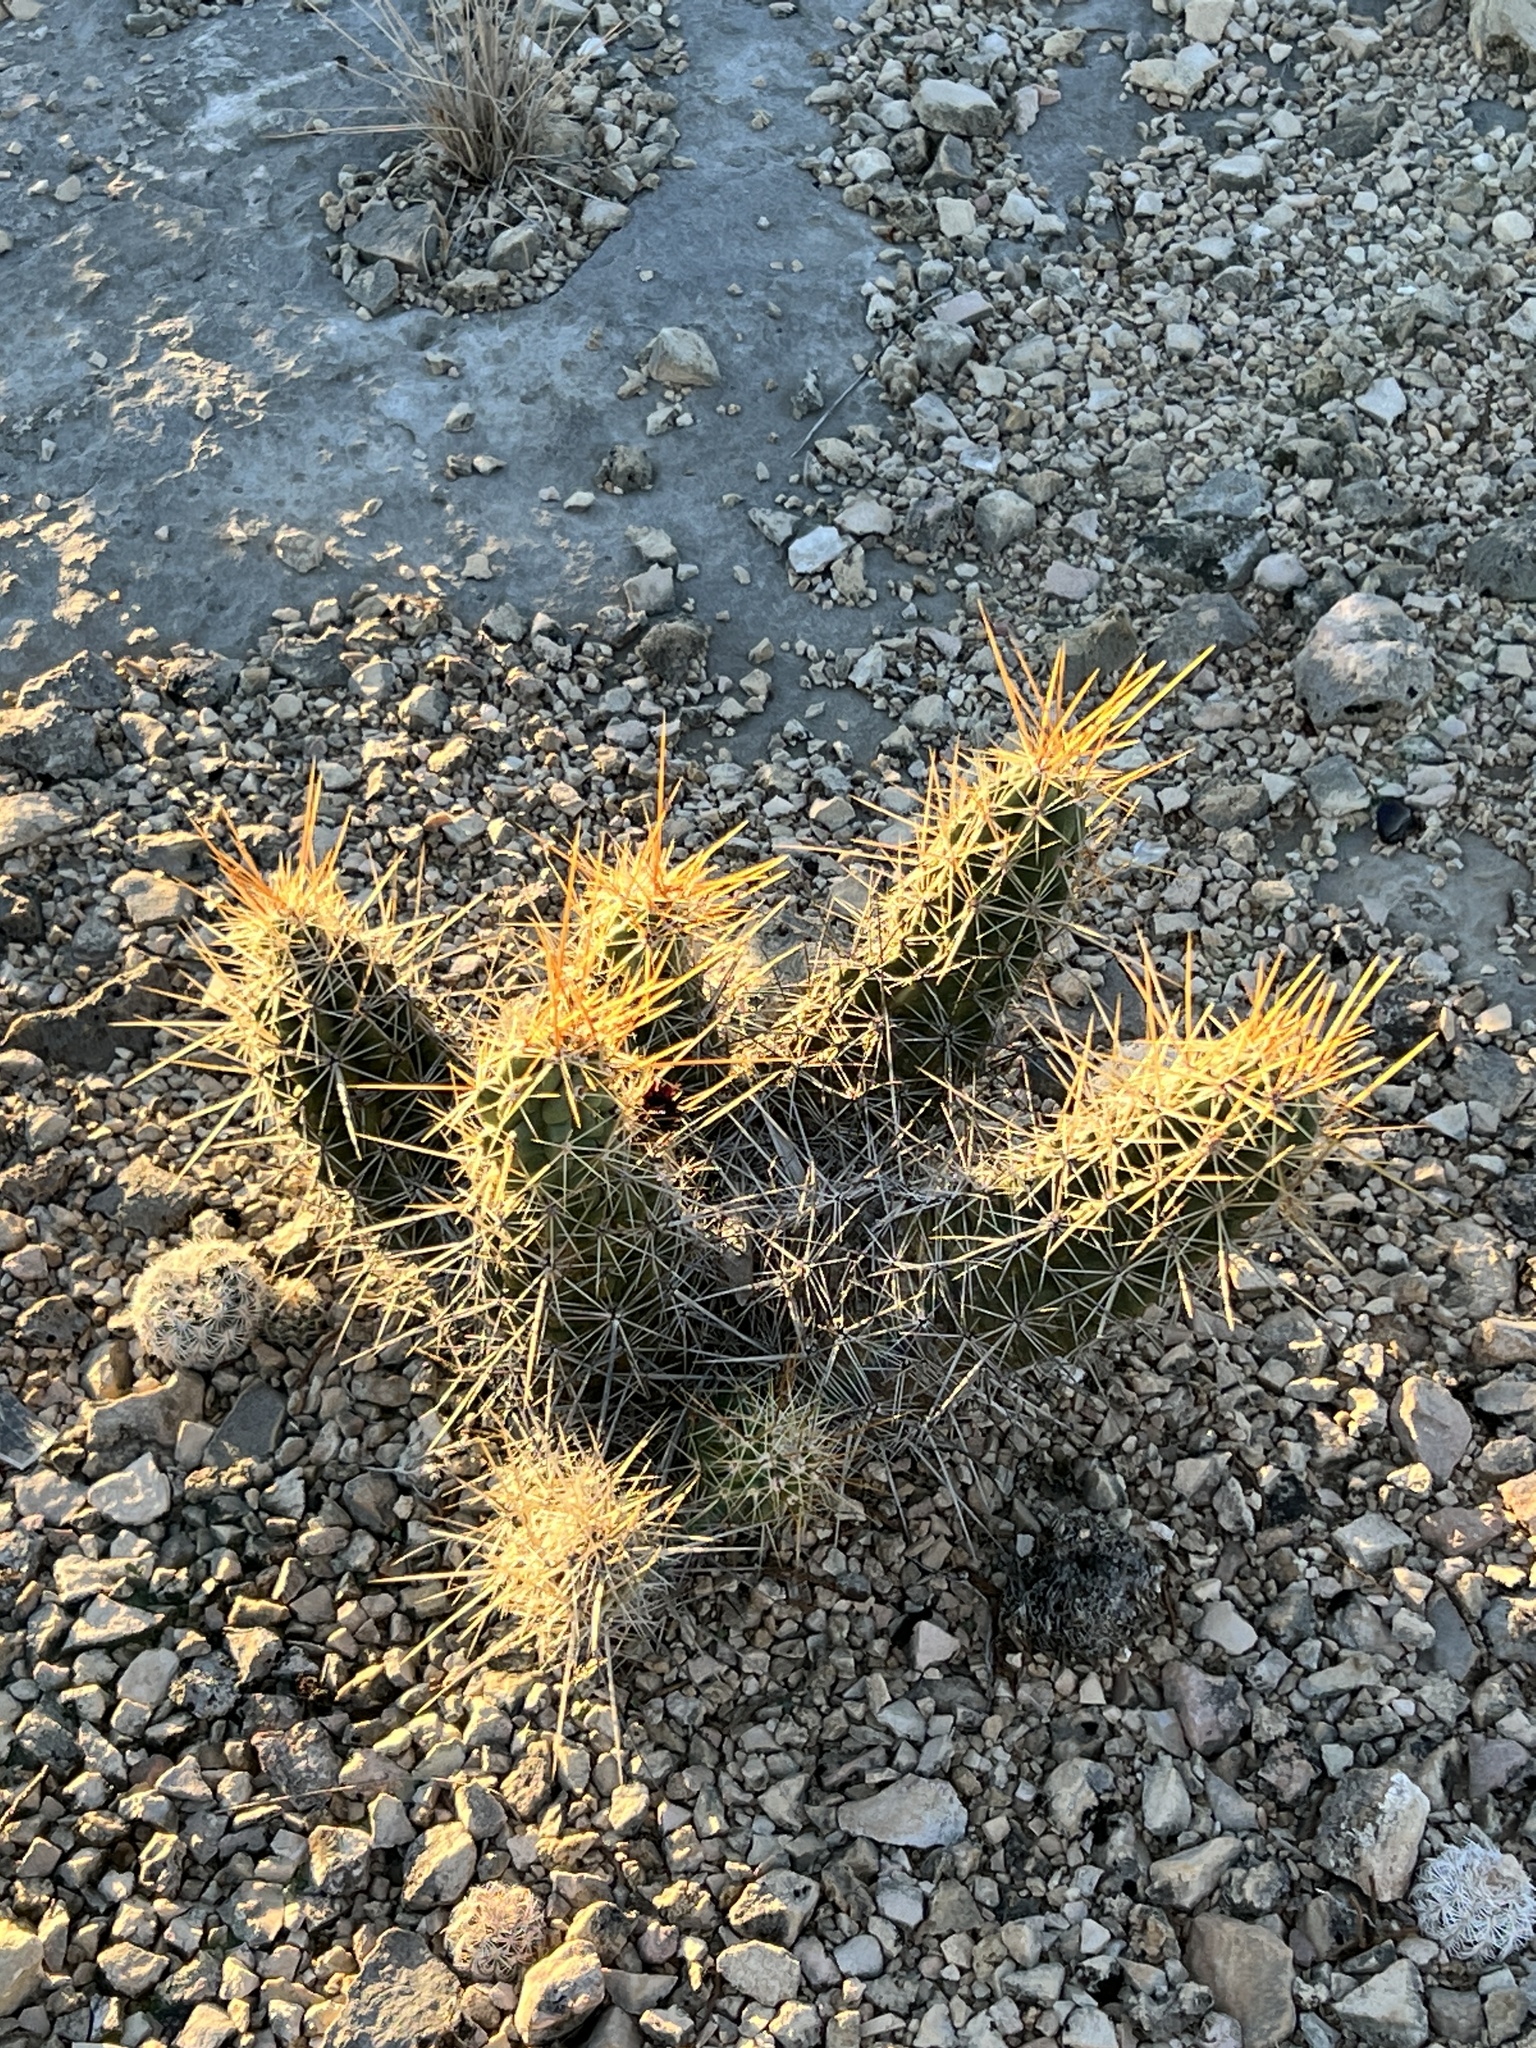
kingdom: Plantae
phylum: Tracheophyta
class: Magnoliopsida
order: Caryophyllales
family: Cactaceae
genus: Echinocereus
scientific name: Echinocereus enneacanthus
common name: Pitaya
